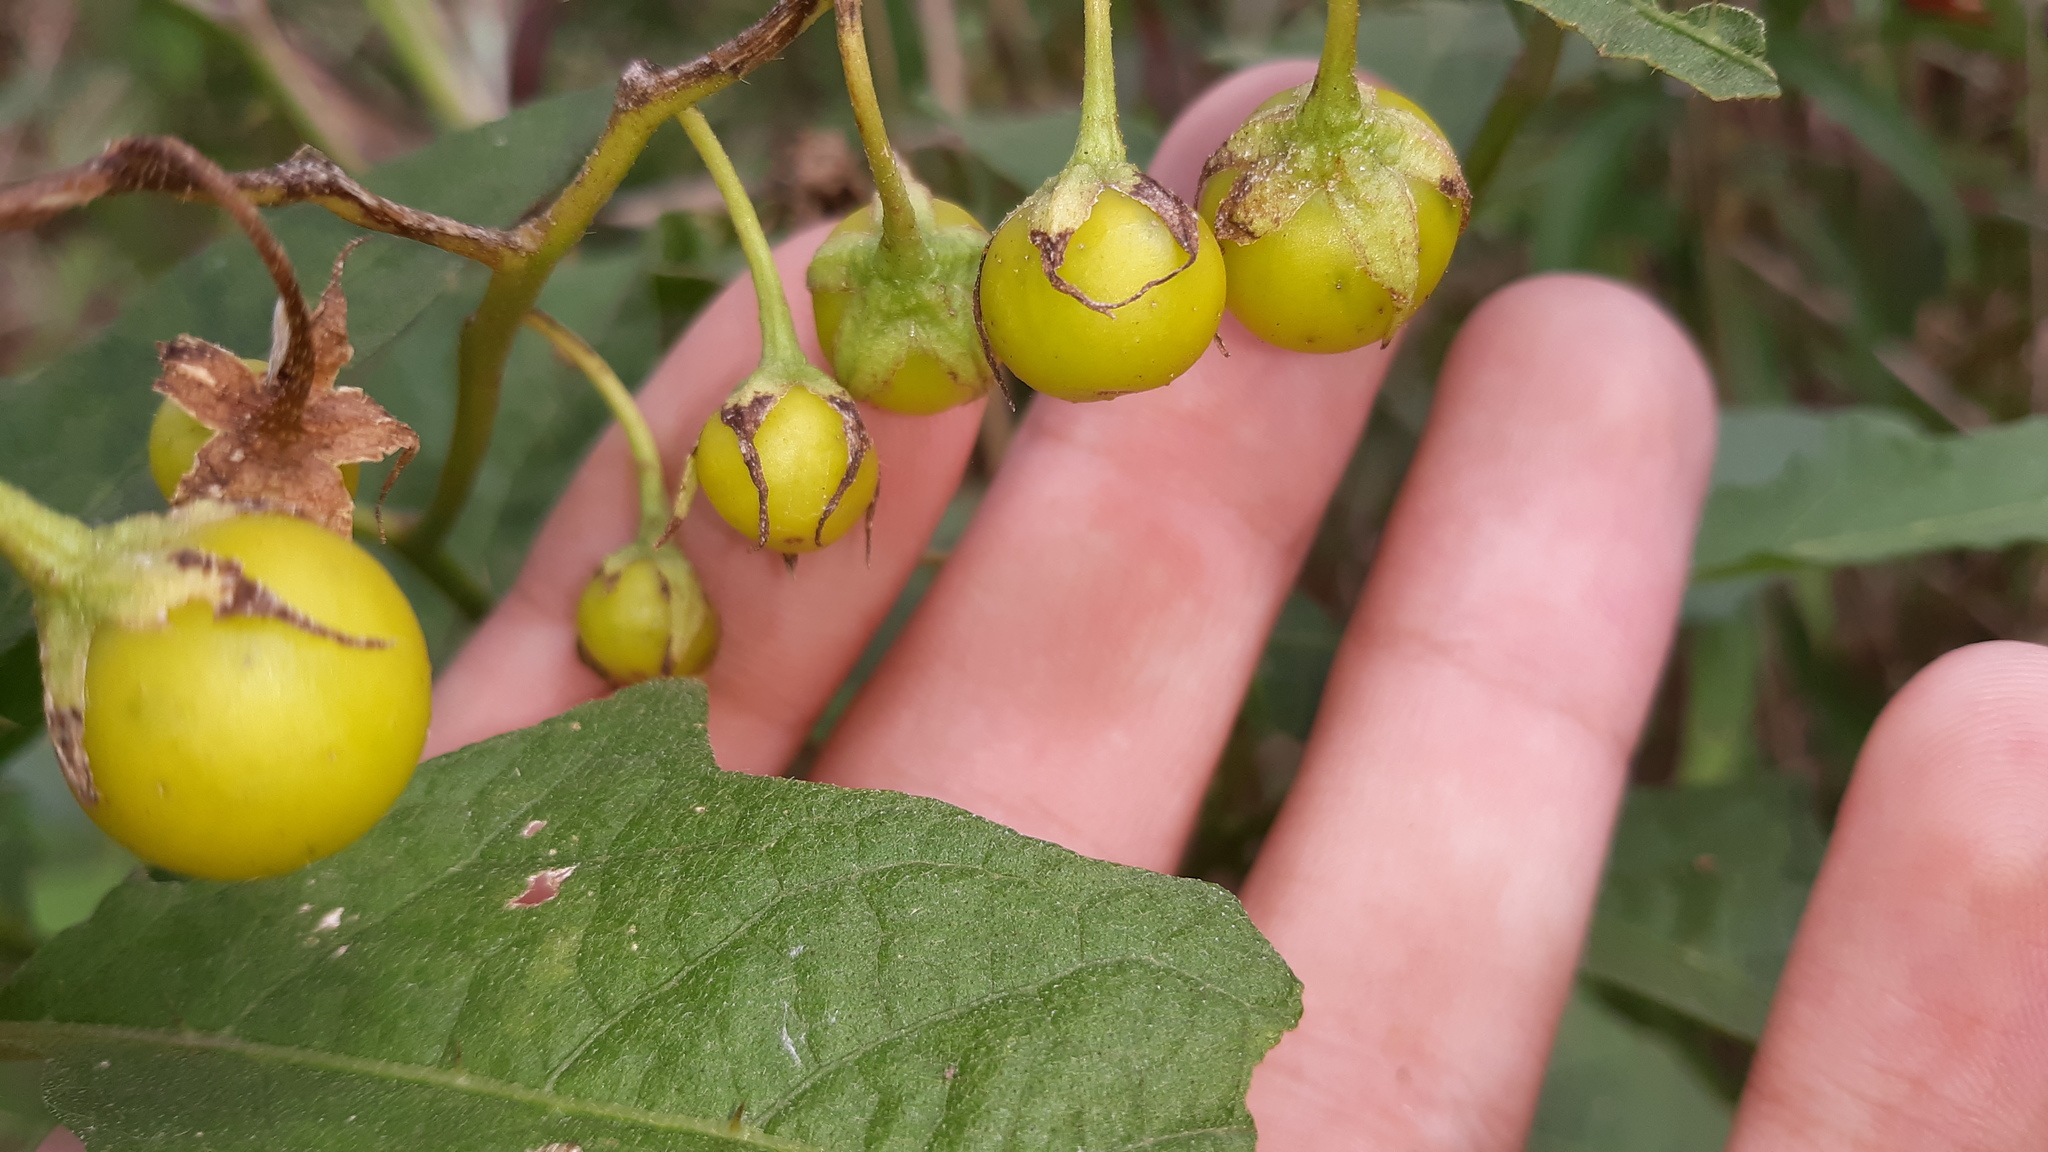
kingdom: Plantae
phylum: Tracheophyta
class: Magnoliopsida
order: Solanales
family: Solanaceae
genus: Solanum
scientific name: Solanum carolinense
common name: Horse-nettle
